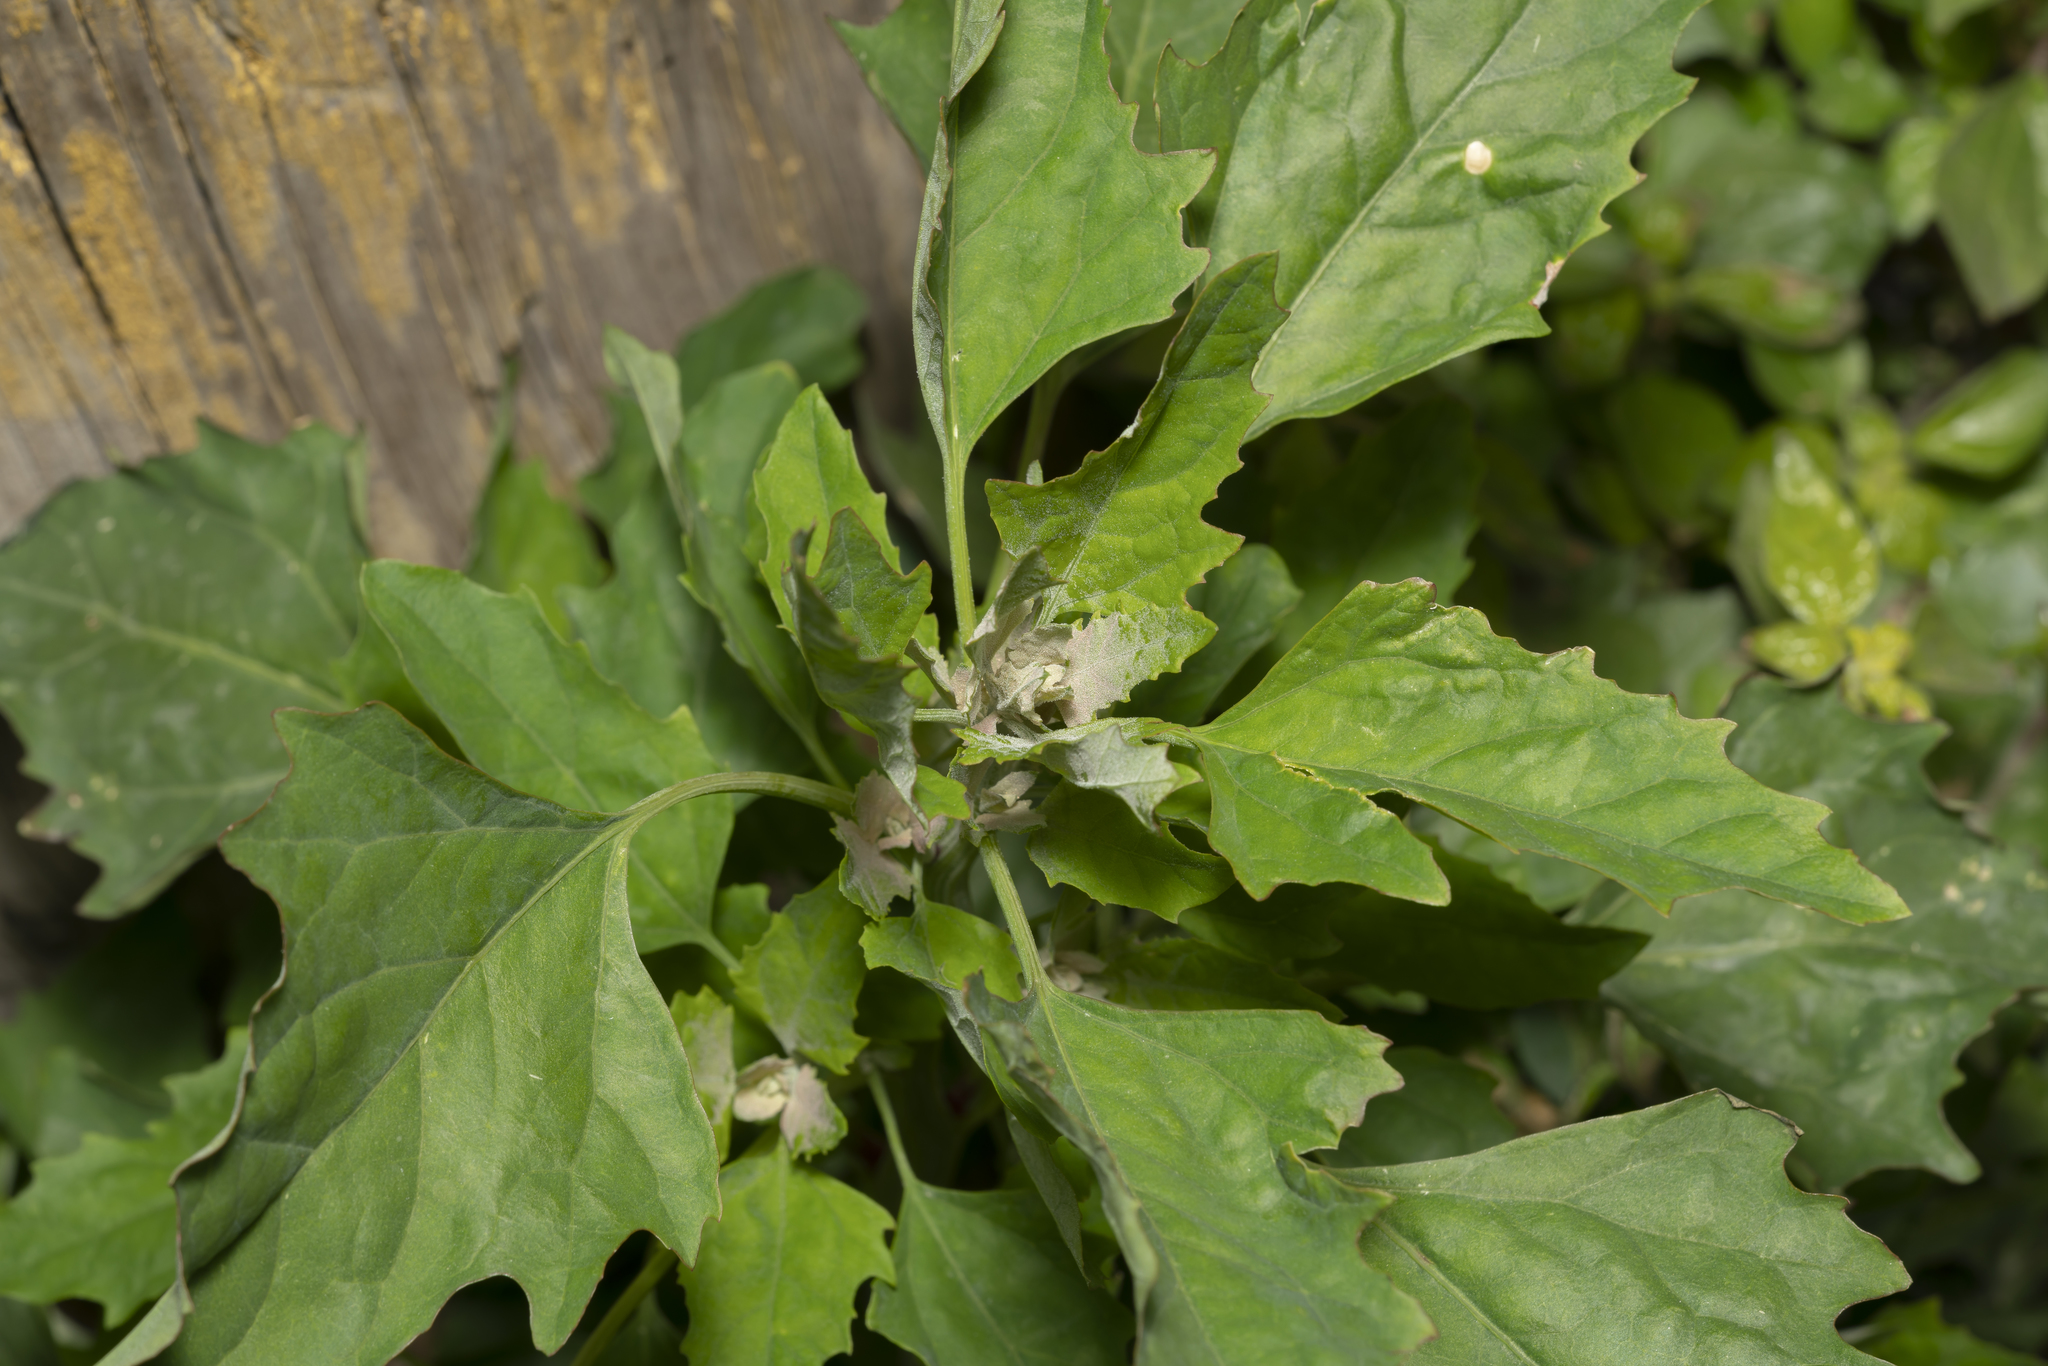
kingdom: Plantae
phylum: Tracheophyta
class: Magnoliopsida
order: Caryophyllales
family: Amaranthaceae
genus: Chenopodium
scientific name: Chenopodium album
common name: Fat-hen
